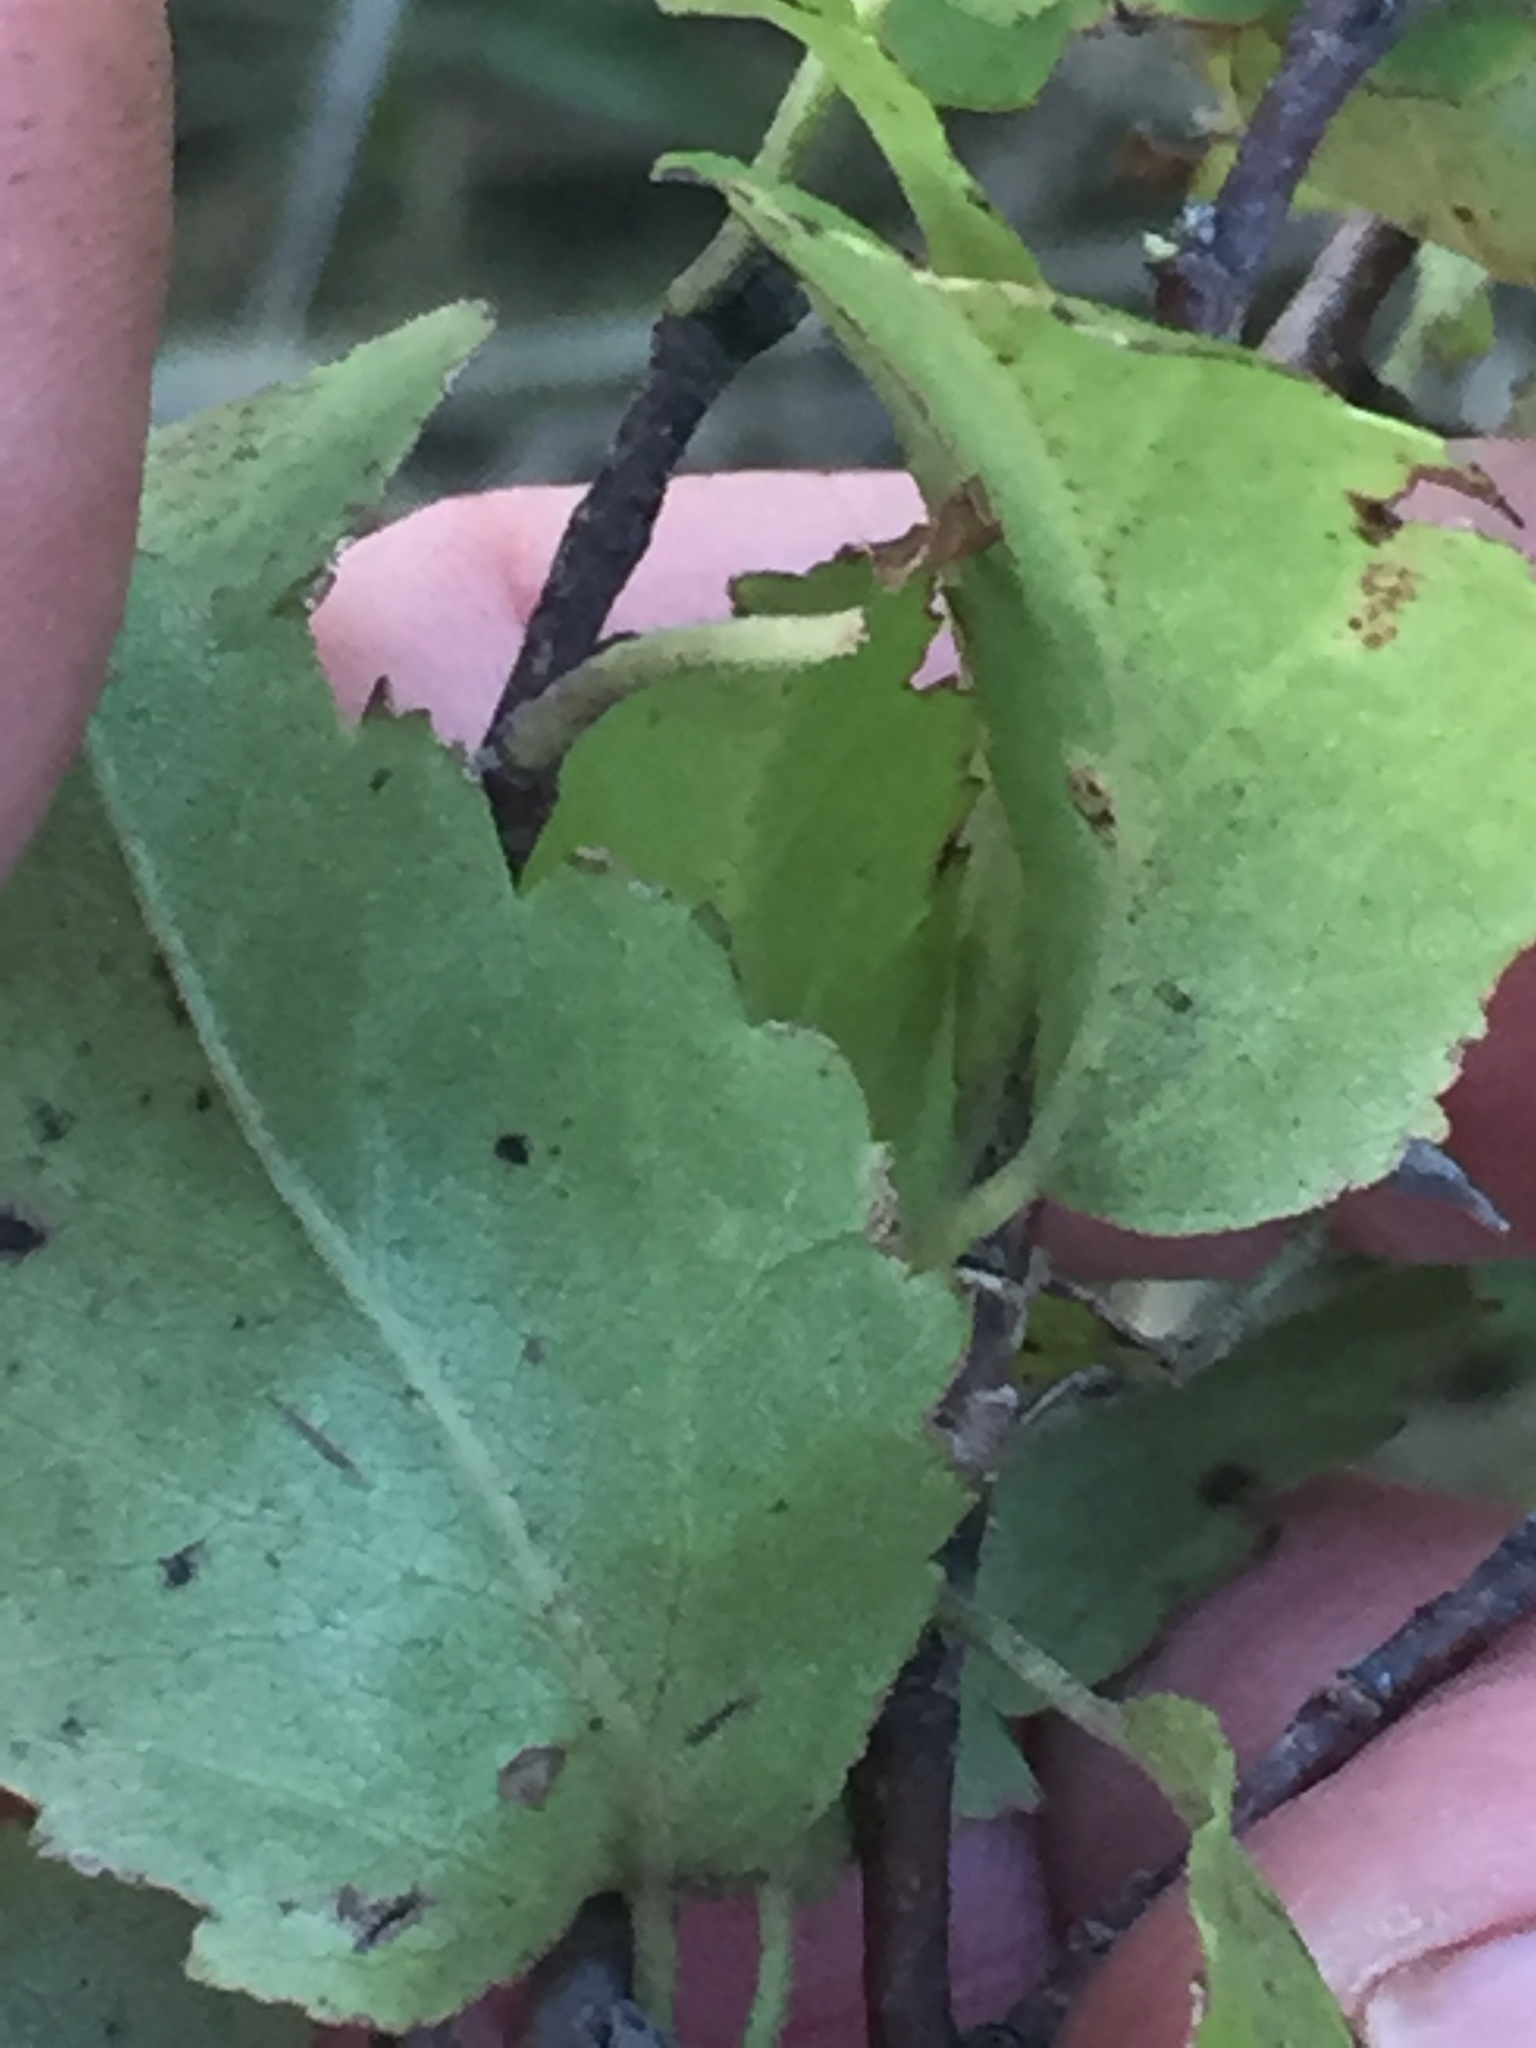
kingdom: Plantae
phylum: Tracheophyta
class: Magnoliopsida
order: Malvales
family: Malvaceae
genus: Plagianthus
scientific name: Plagianthus regius
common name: Manatu
